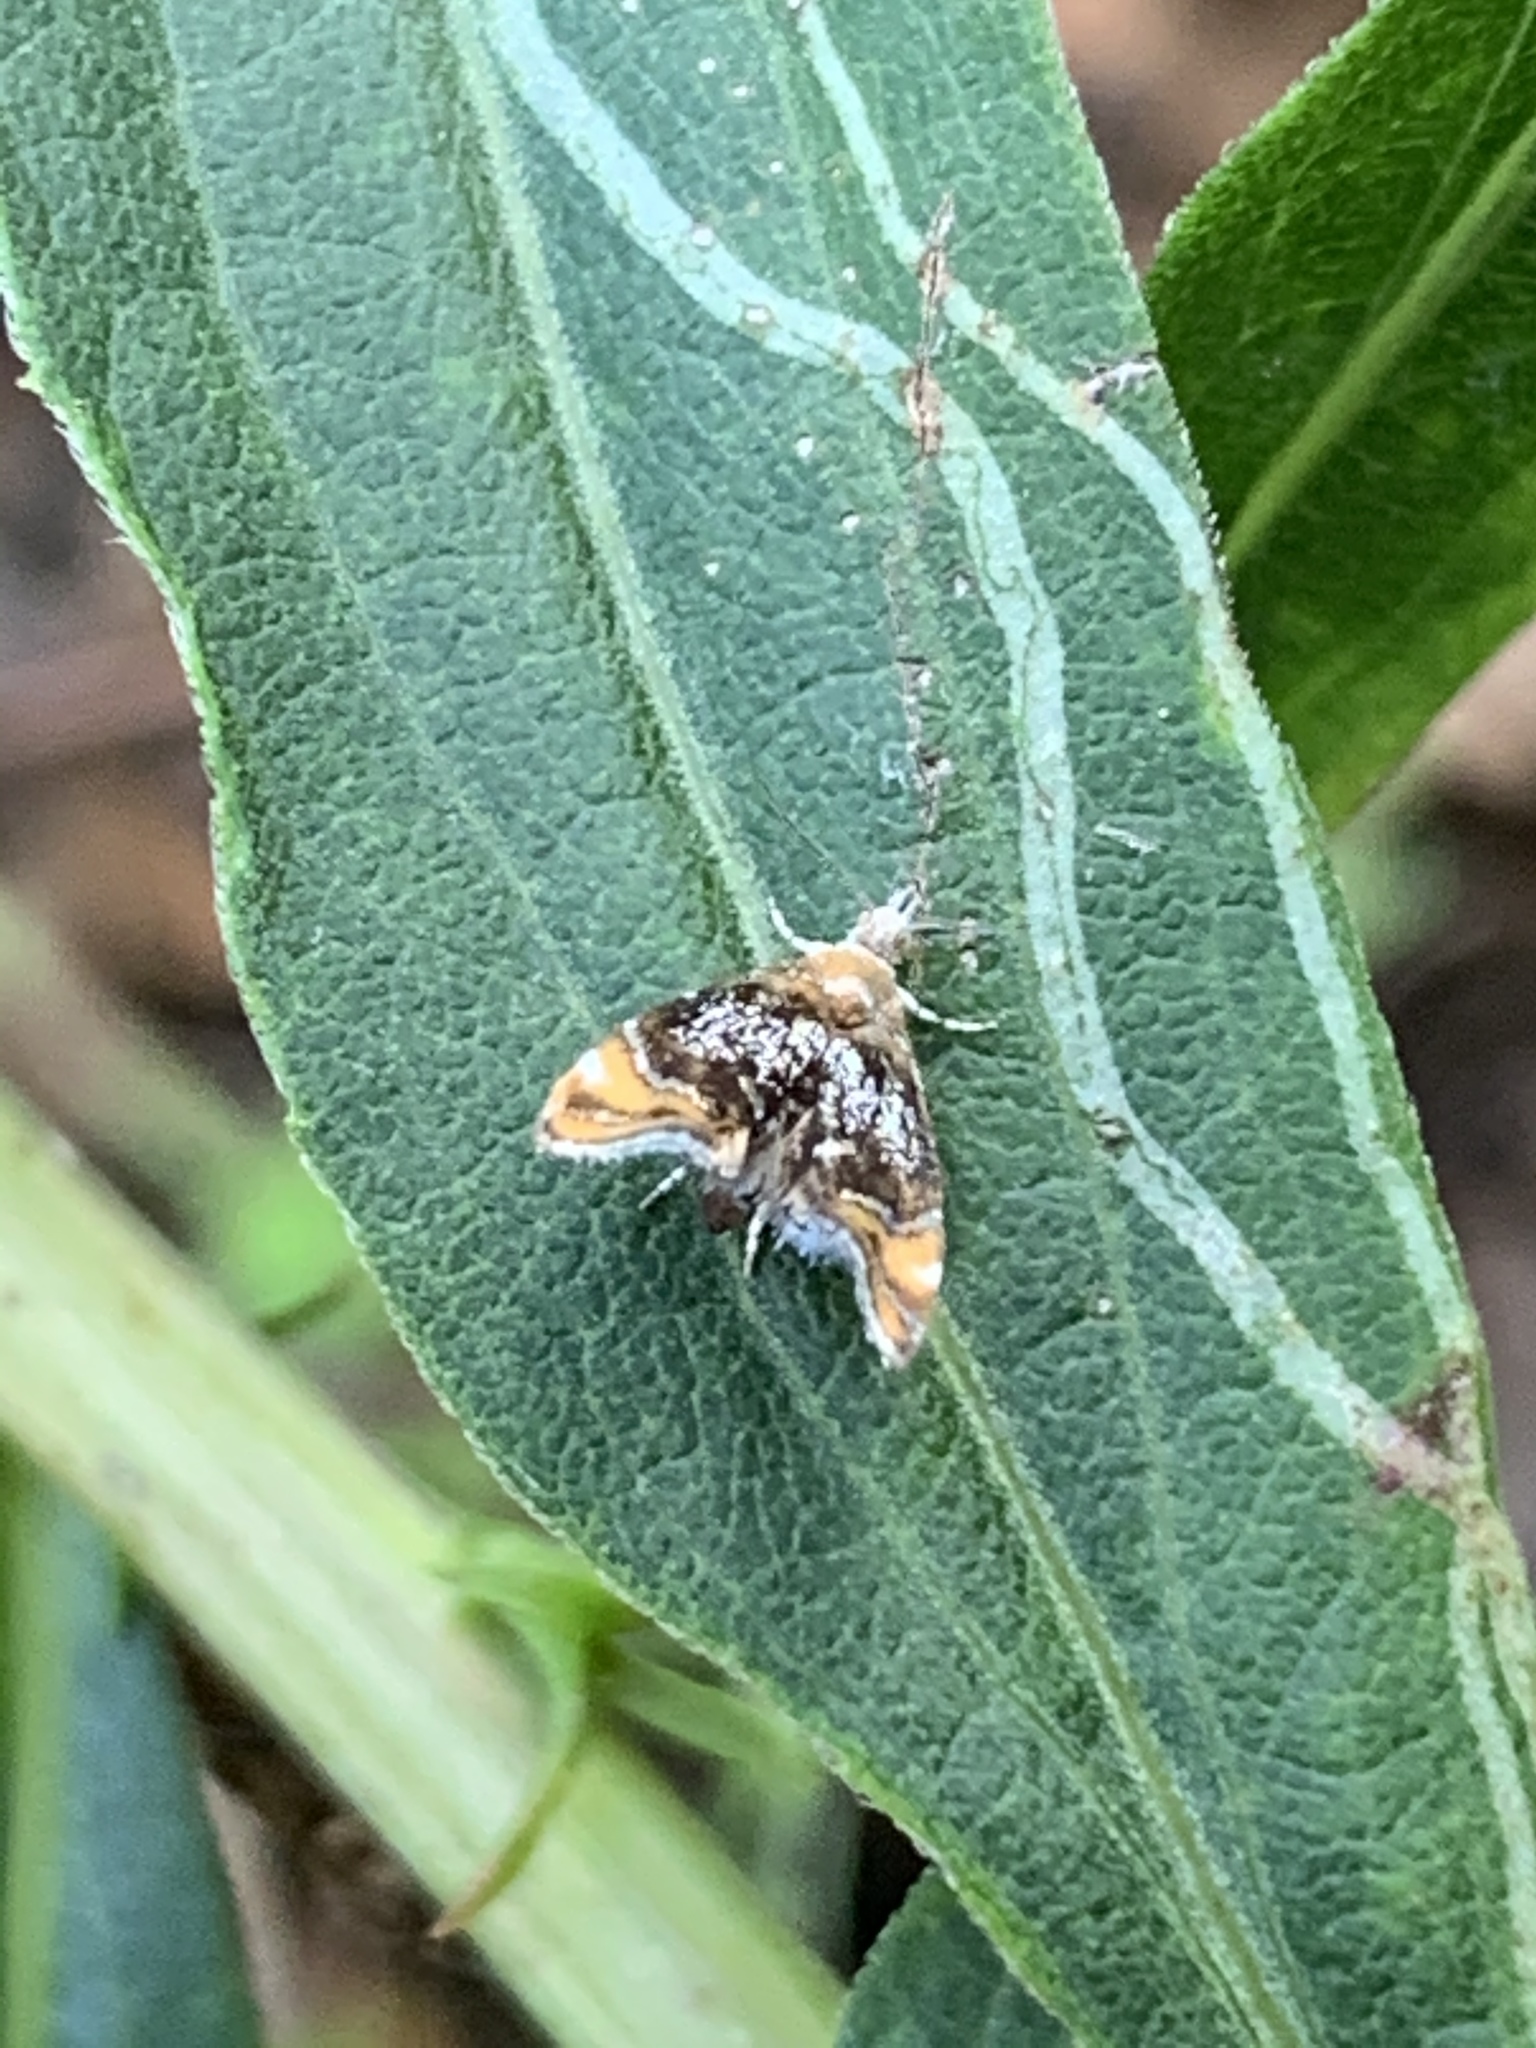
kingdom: Animalia
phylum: Arthropoda
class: Insecta
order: Lepidoptera
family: Choreutidae
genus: Prochoreutis
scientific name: Prochoreutis inflatella
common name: Skullcap skeletonizer moth
